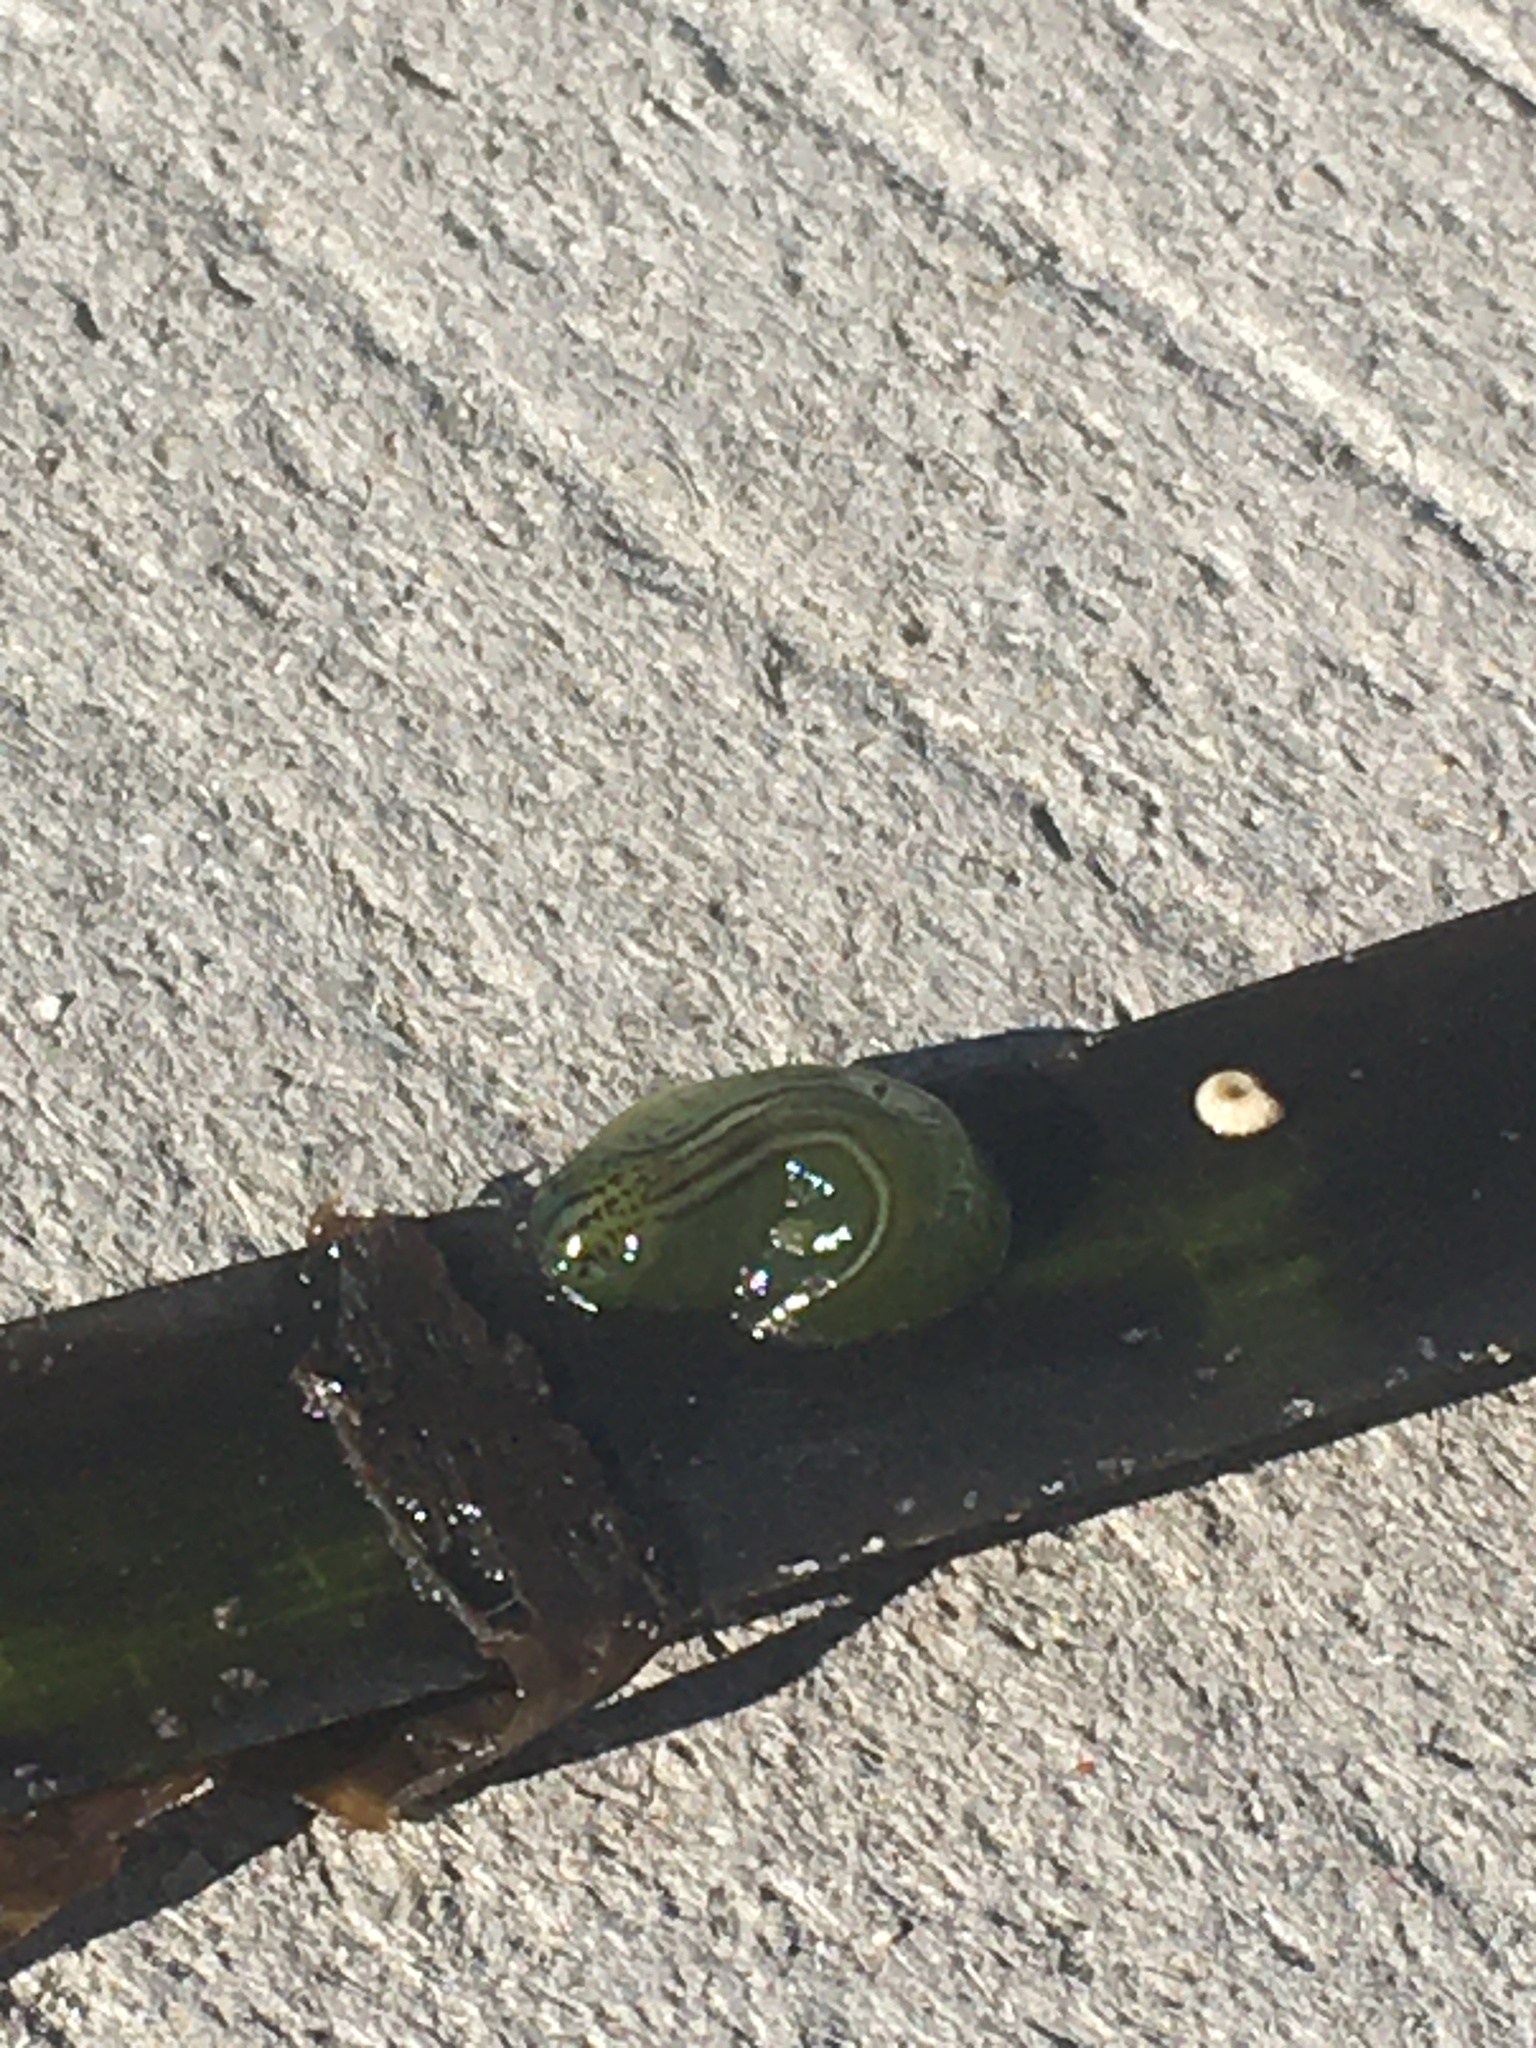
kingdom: Animalia
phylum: Mollusca
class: Gastropoda
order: Aplysiida
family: Aplysiidae
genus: Phyllaplysia
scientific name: Phyllaplysia taylori
